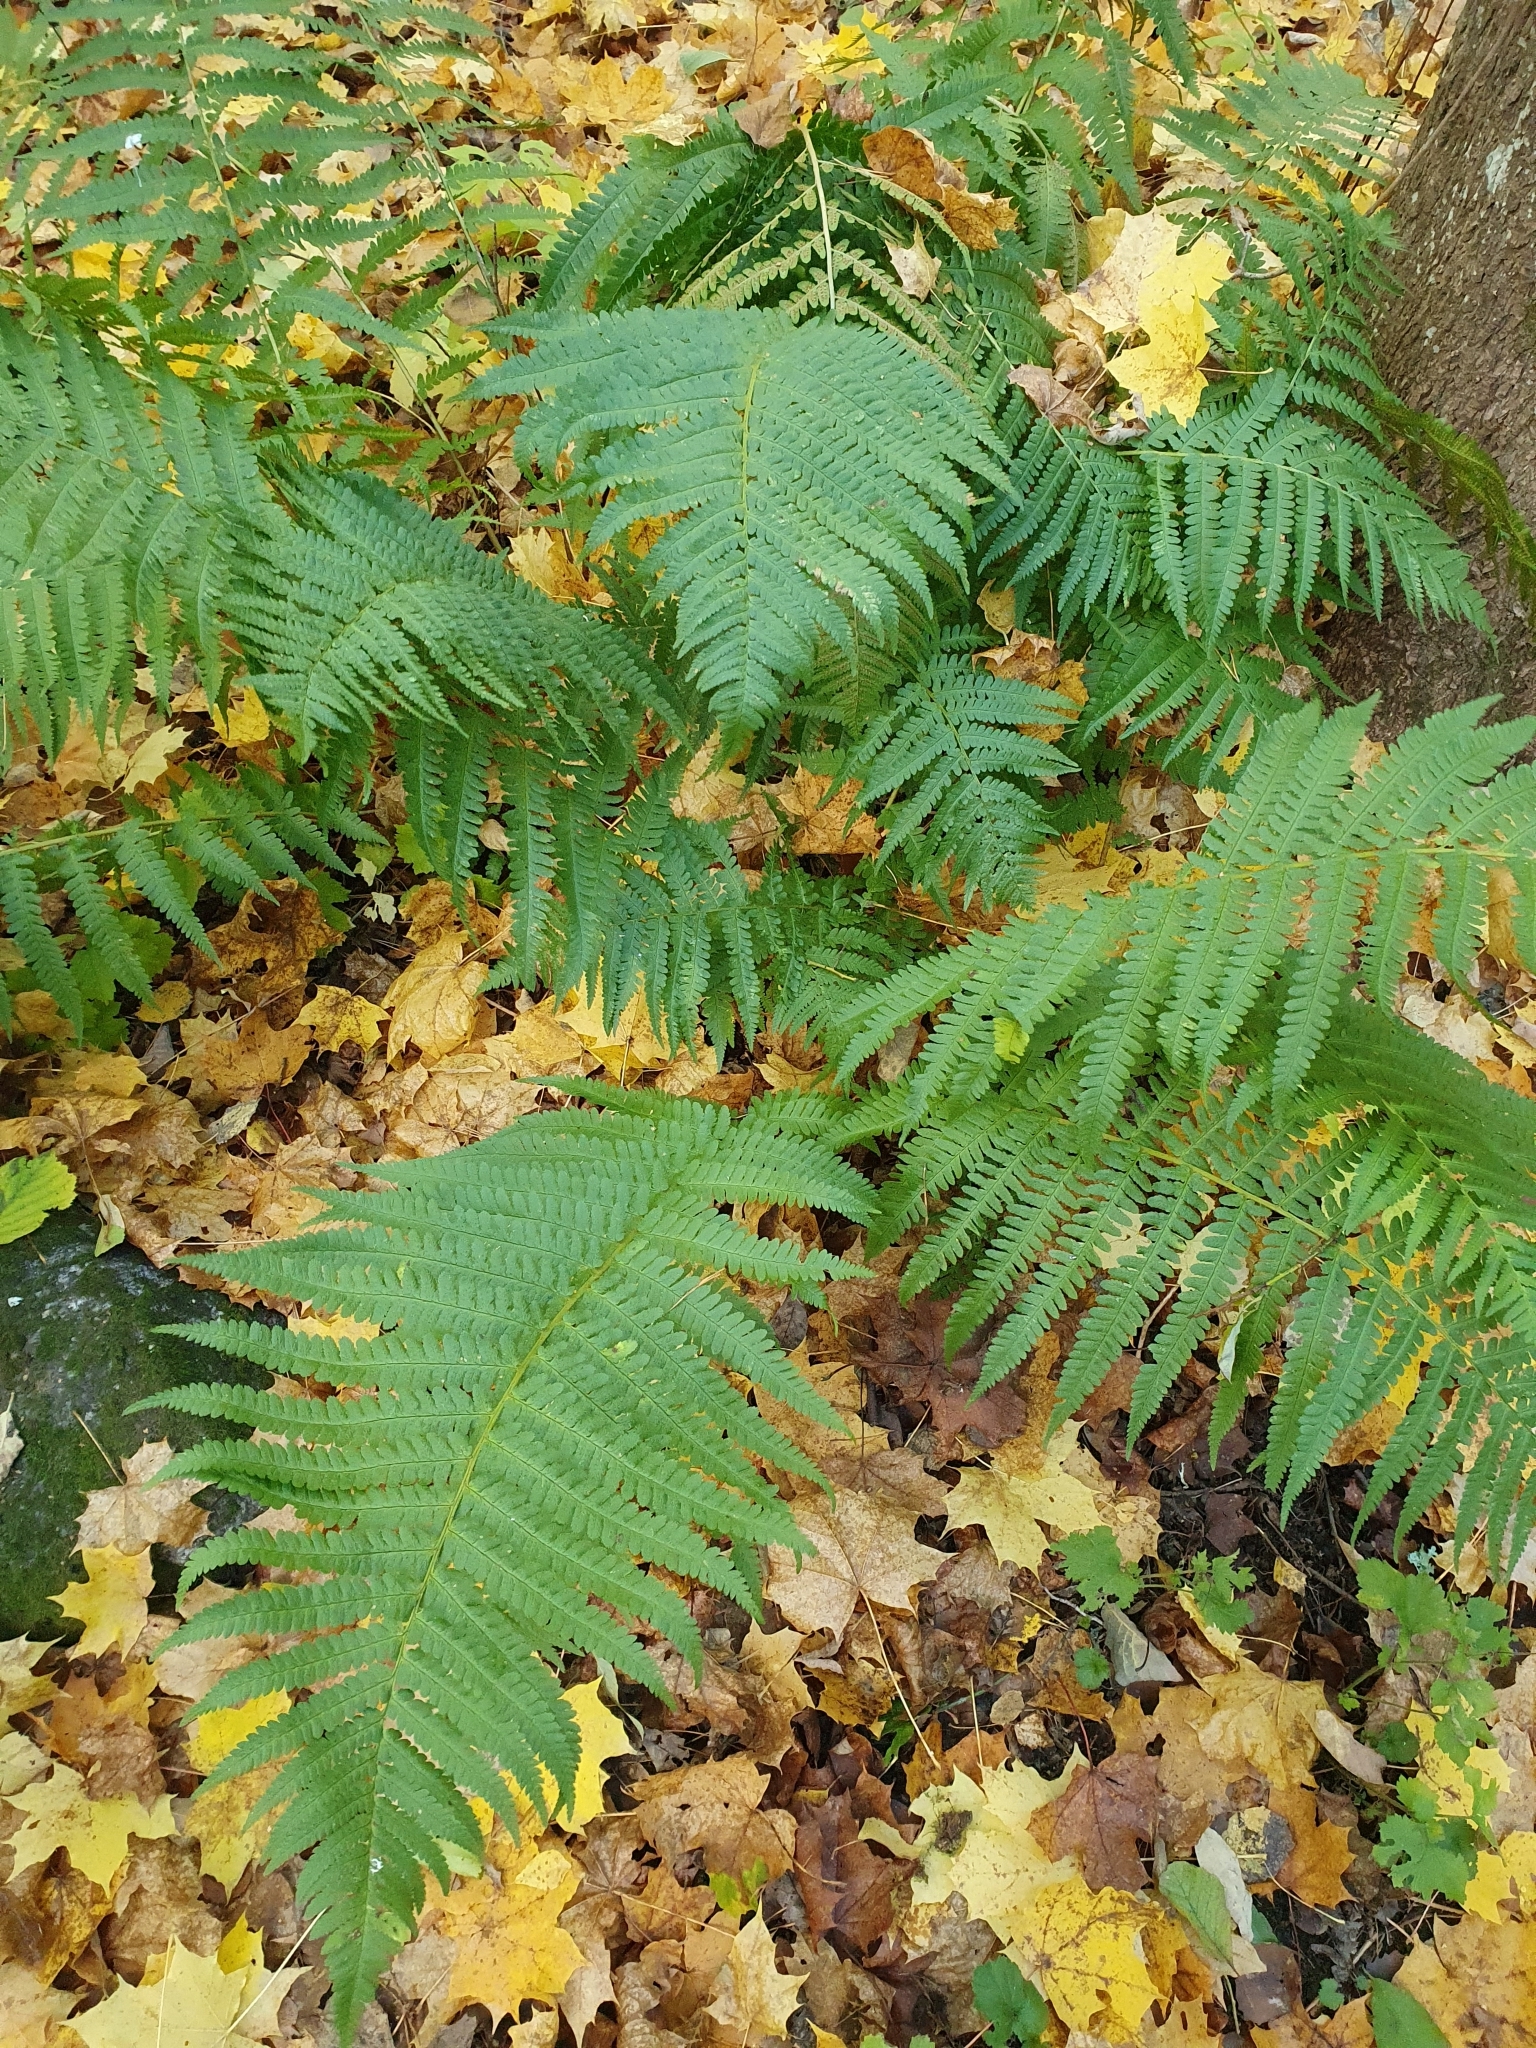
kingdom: Plantae
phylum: Tracheophyta
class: Polypodiopsida
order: Polypodiales
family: Dryopteridaceae
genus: Dryopteris
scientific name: Dryopteris filix-mas
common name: Male fern
